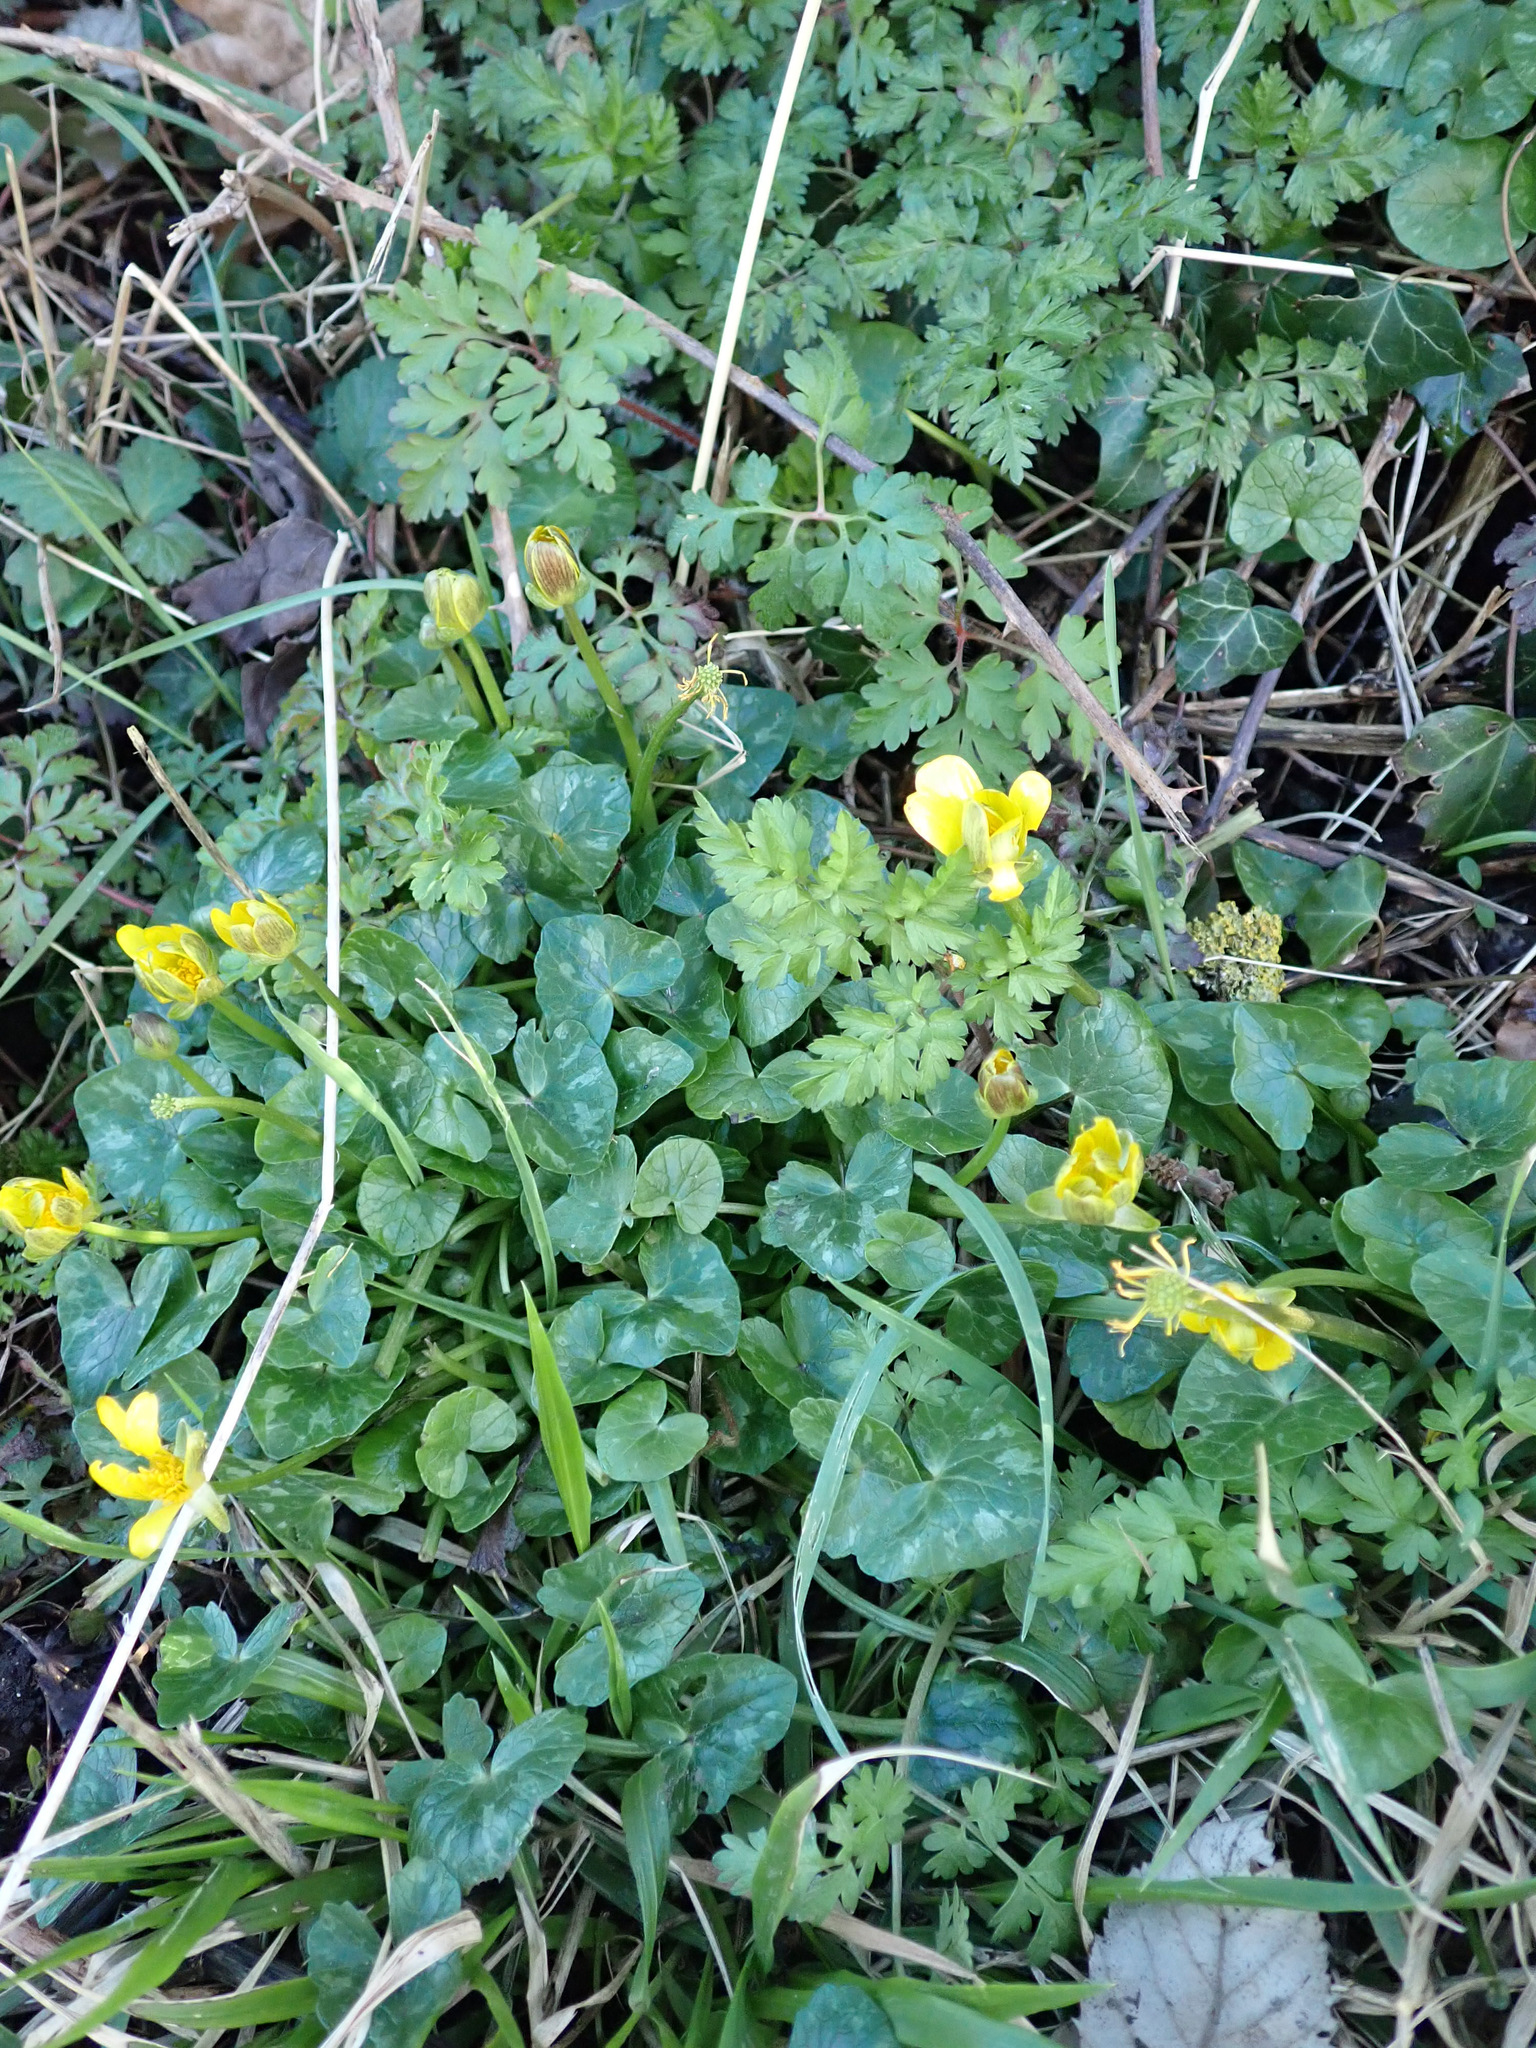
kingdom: Plantae
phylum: Tracheophyta
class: Magnoliopsida
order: Ranunculales
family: Ranunculaceae
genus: Ficaria
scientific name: Ficaria verna
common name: Lesser celandine
